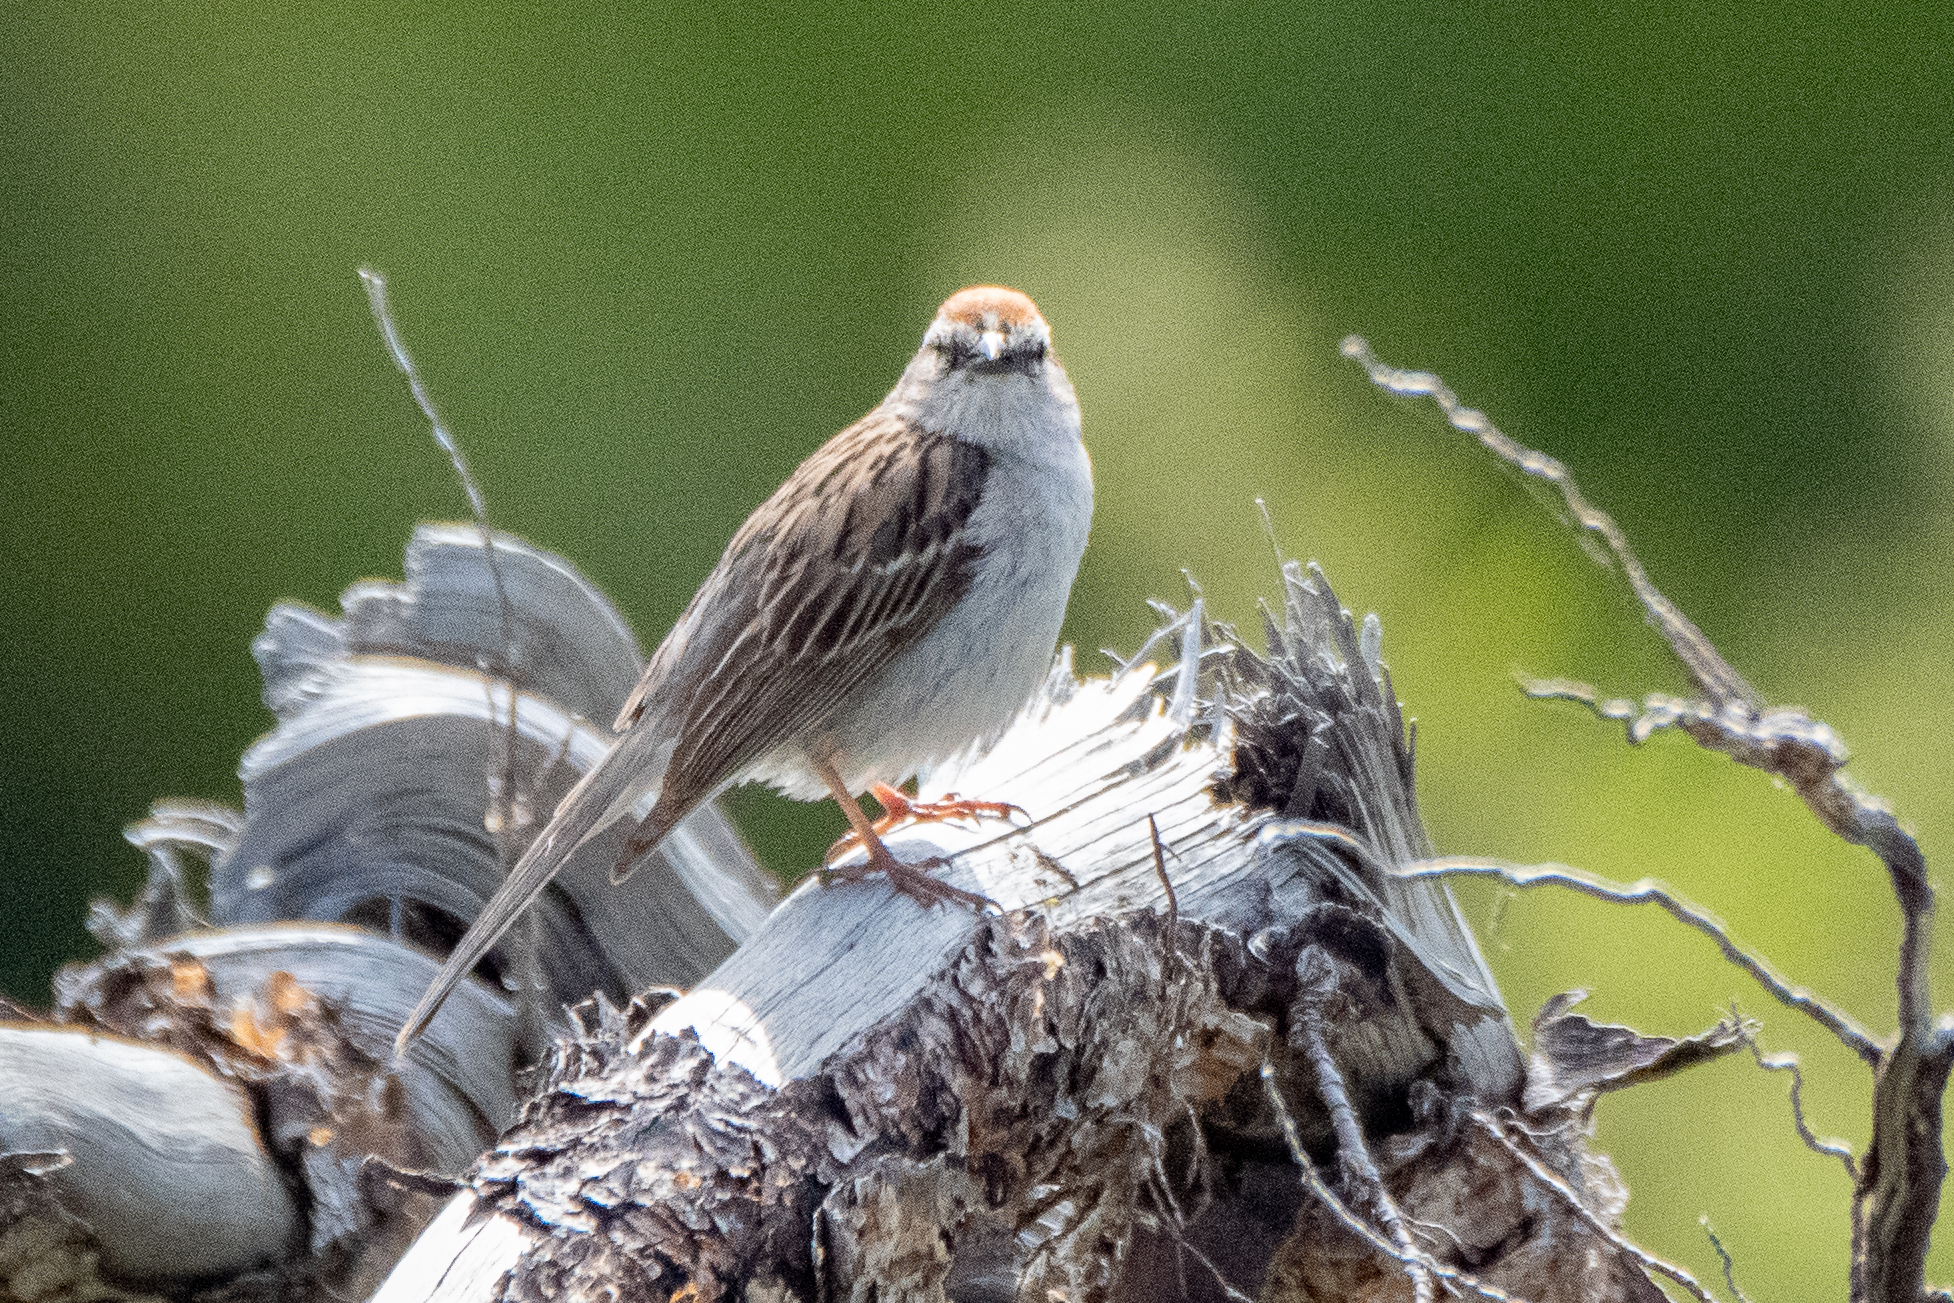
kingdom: Animalia
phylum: Chordata
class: Aves
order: Passeriformes
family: Passerellidae
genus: Spizella
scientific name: Spizella passerina
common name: Chipping sparrow
